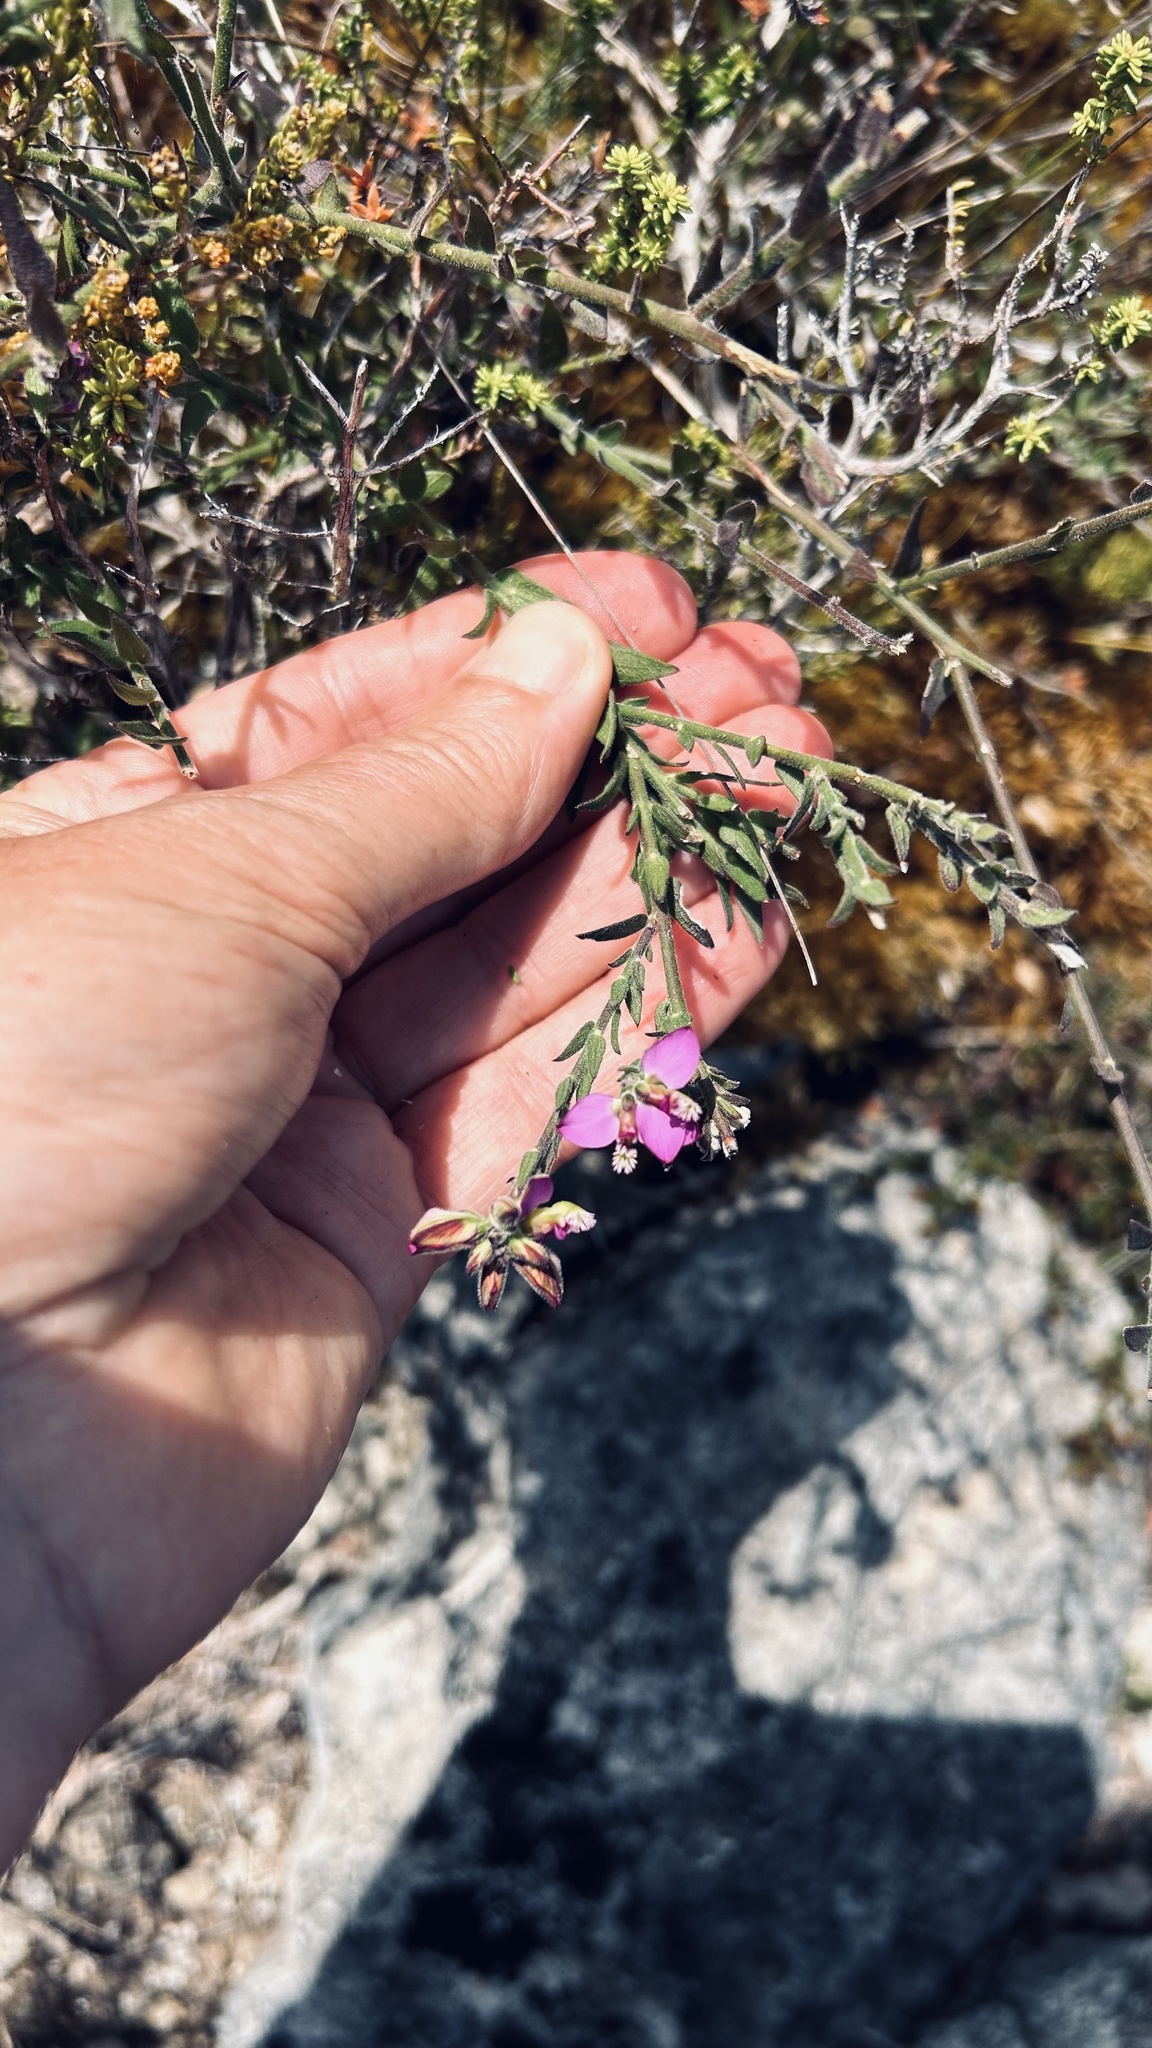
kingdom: Plantae
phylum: Tracheophyta
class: Magnoliopsida
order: Fabales
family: Polygalaceae
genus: Polygala
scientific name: Polygala pubiflora
